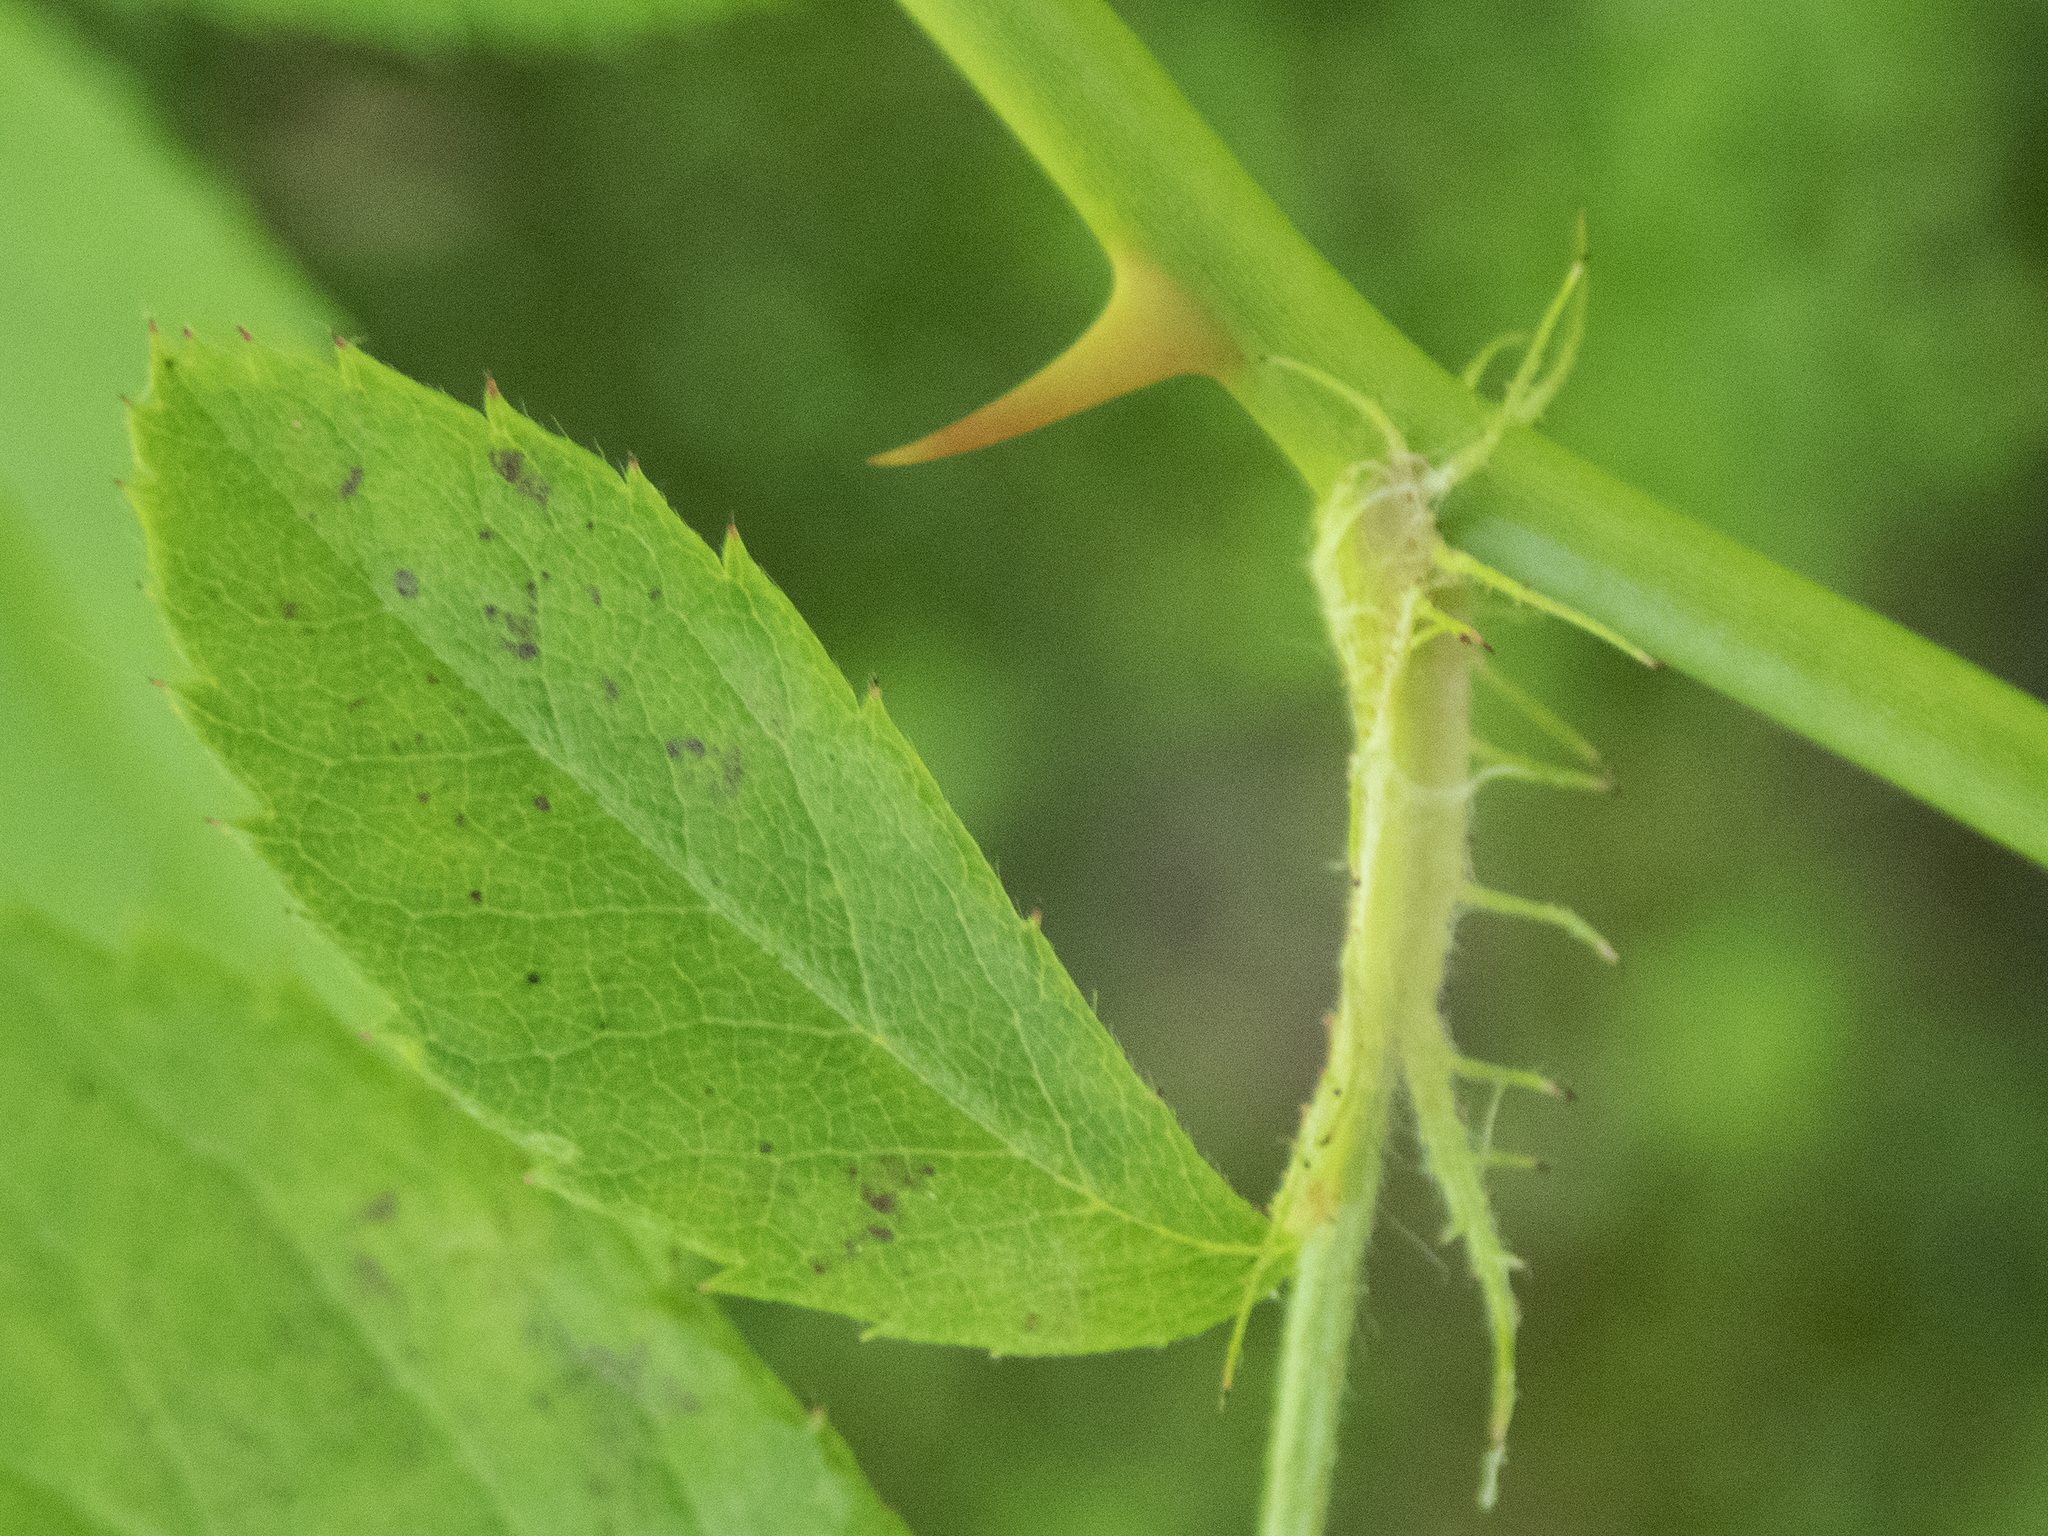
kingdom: Plantae
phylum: Tracheophyta
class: Magnoliopsida
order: Rosales
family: Rosaceae
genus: Rosa
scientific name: Rosa multiflora
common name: Multiflora rose
